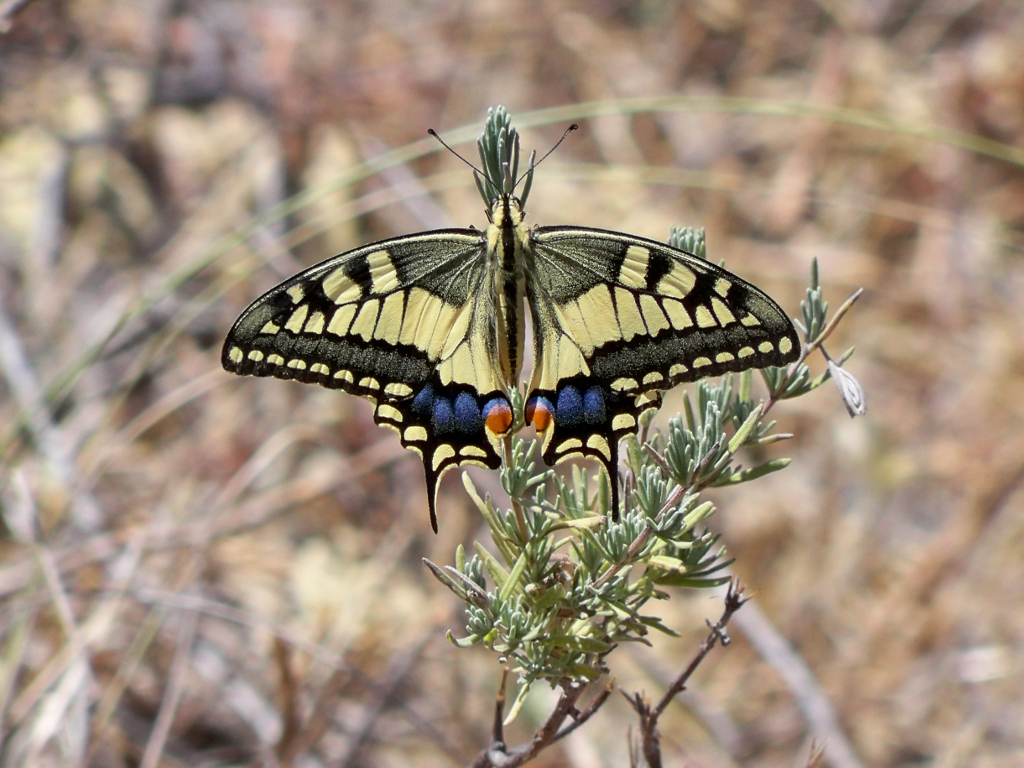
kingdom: Animalia
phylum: Arthropoda
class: Insecta
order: Lepidoptera
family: Papilionidae
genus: Papilio
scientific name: Papilio machaon
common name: Swallowtail
